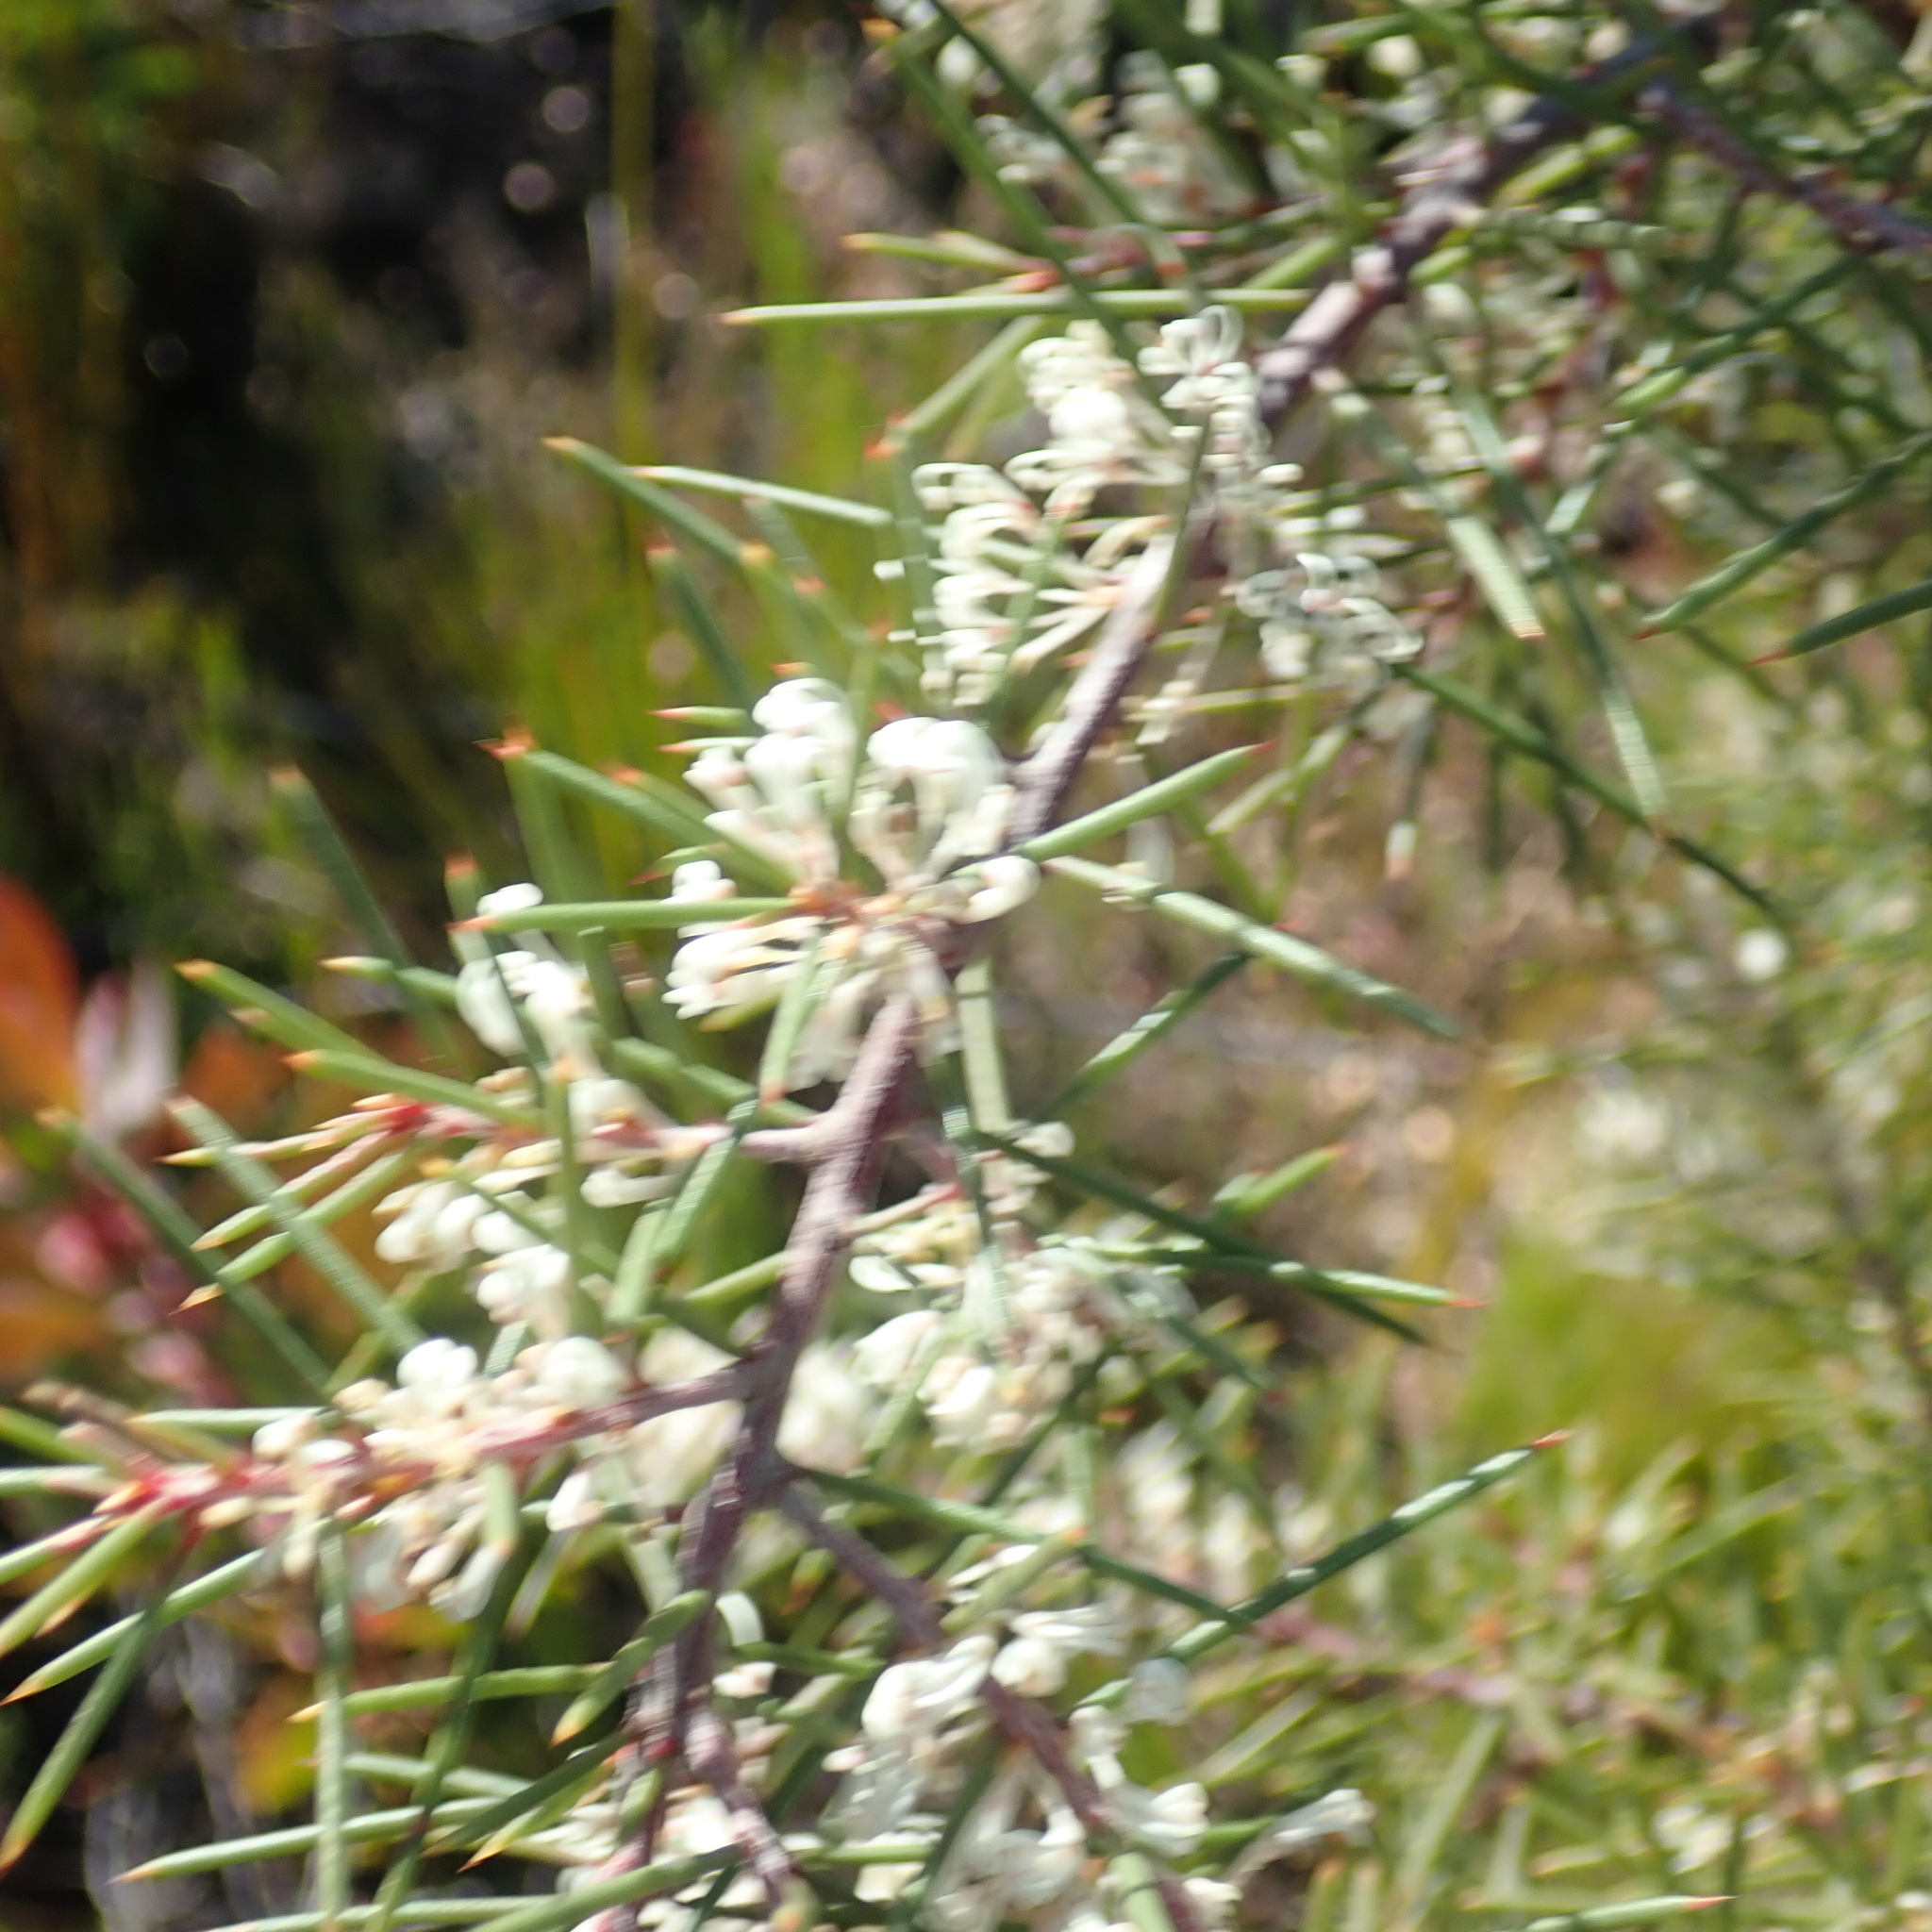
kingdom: Plantae
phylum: Tracheophyta
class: Magnoliopsida
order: Proteales
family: Proteaceae
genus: Hakea
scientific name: Hakea sericea
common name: Needle bush
